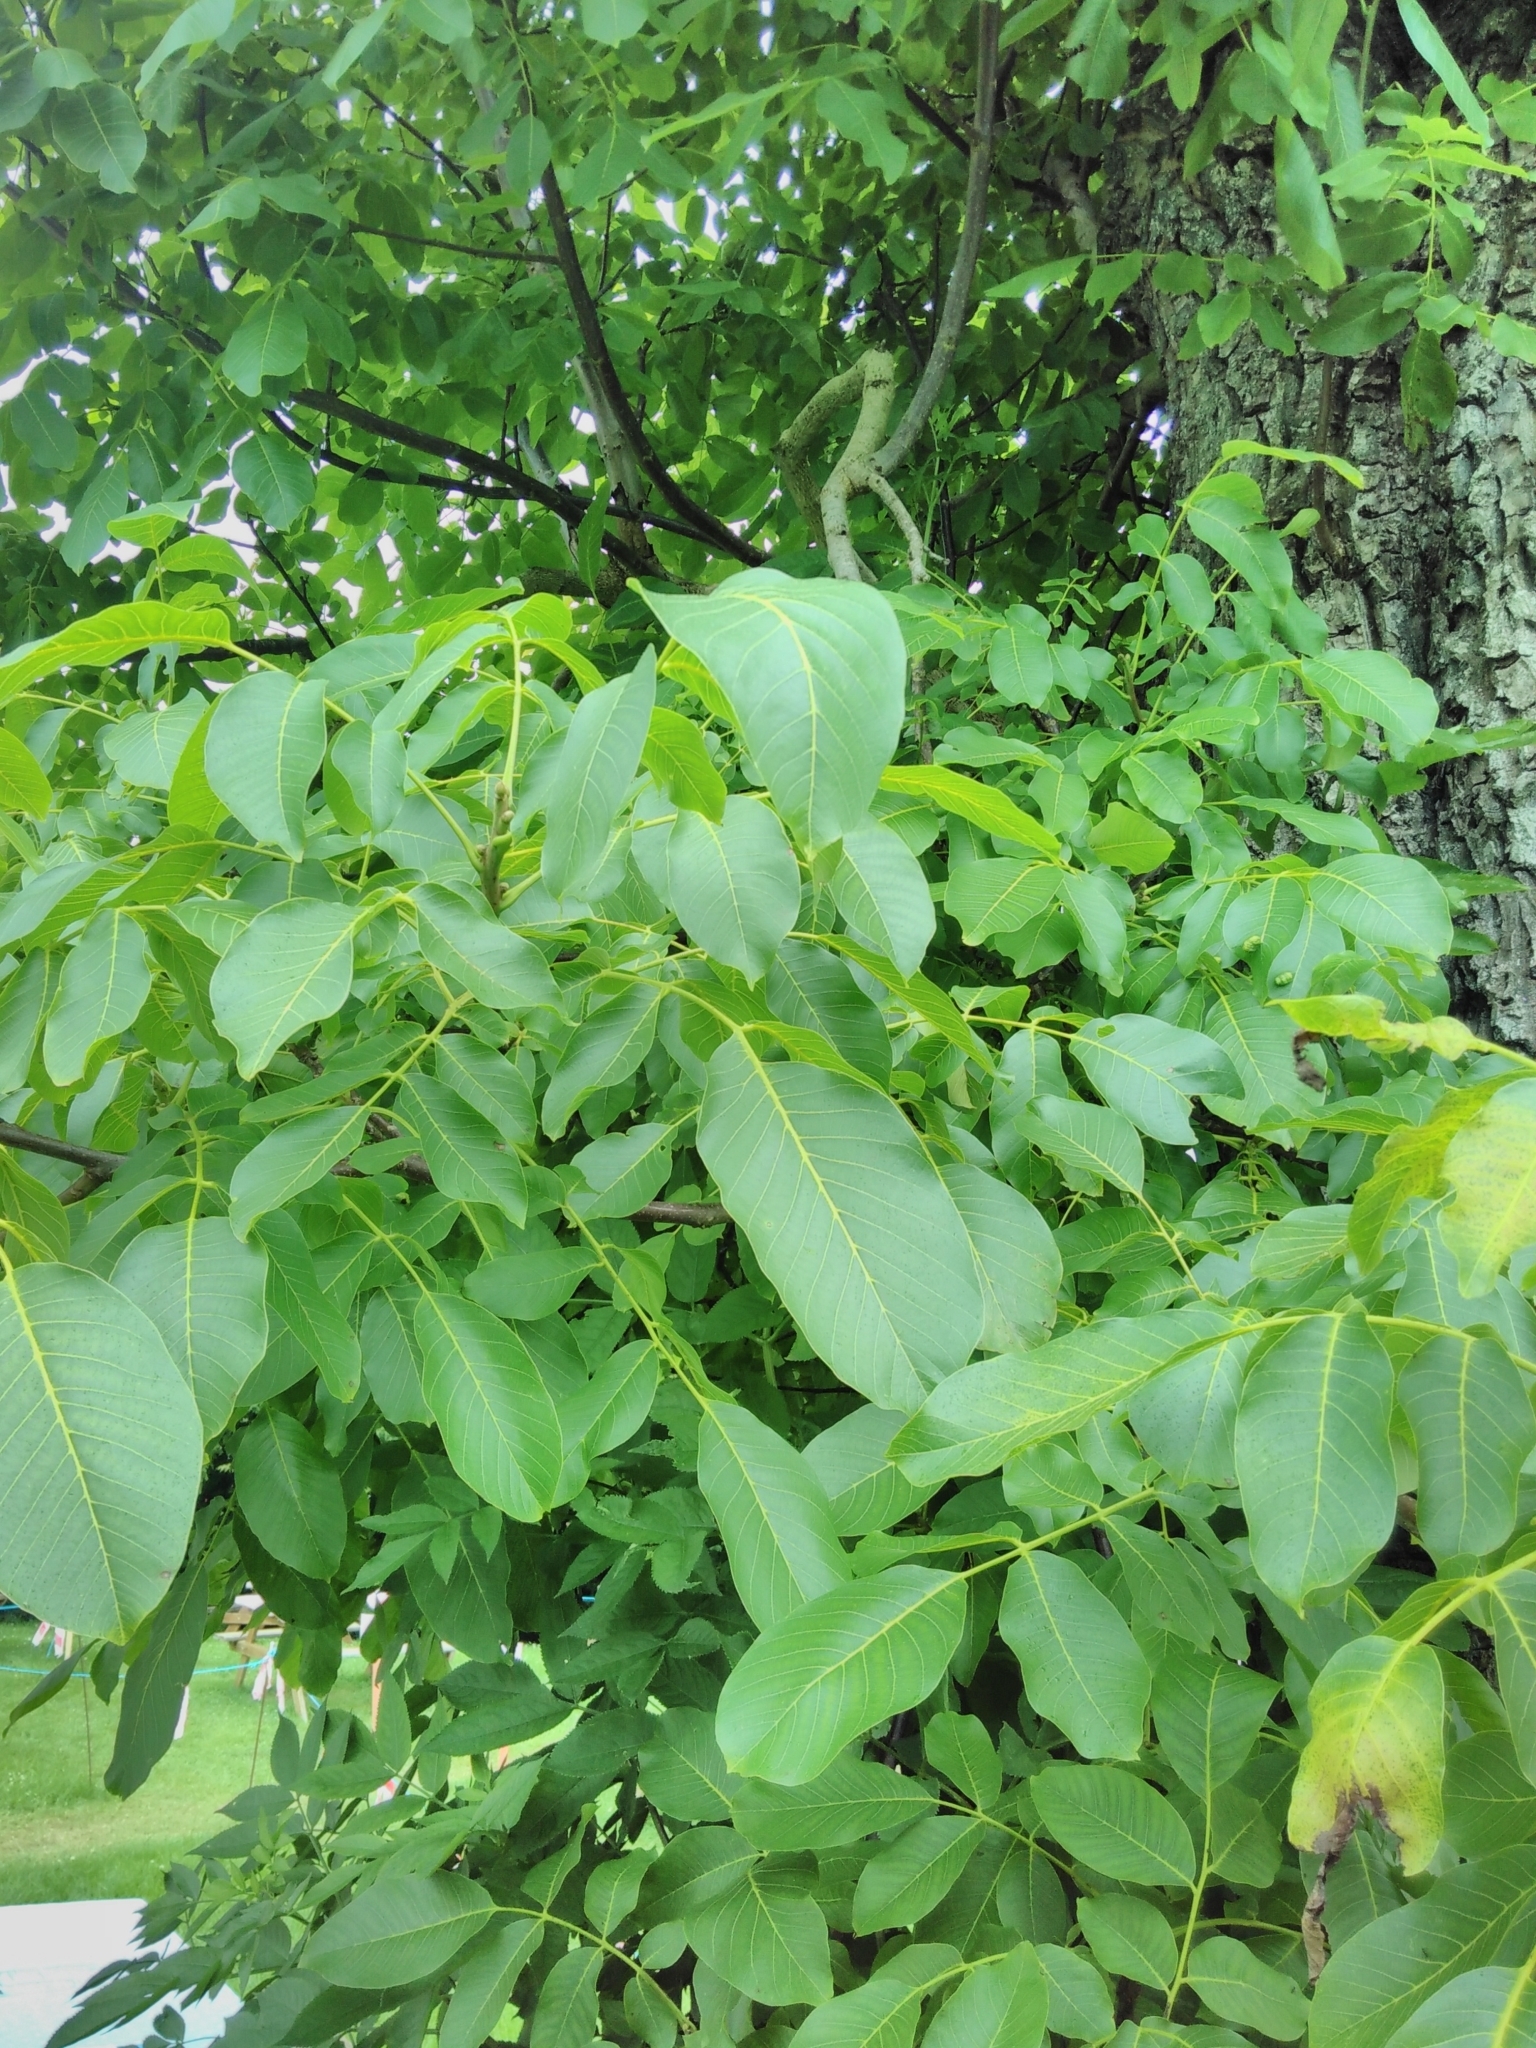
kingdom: Plantae
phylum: Tracheophyta
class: Magnoliopsida
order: Fagales
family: Juglandaceae
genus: Juglans
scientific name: Juglans regia
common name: Walnut
